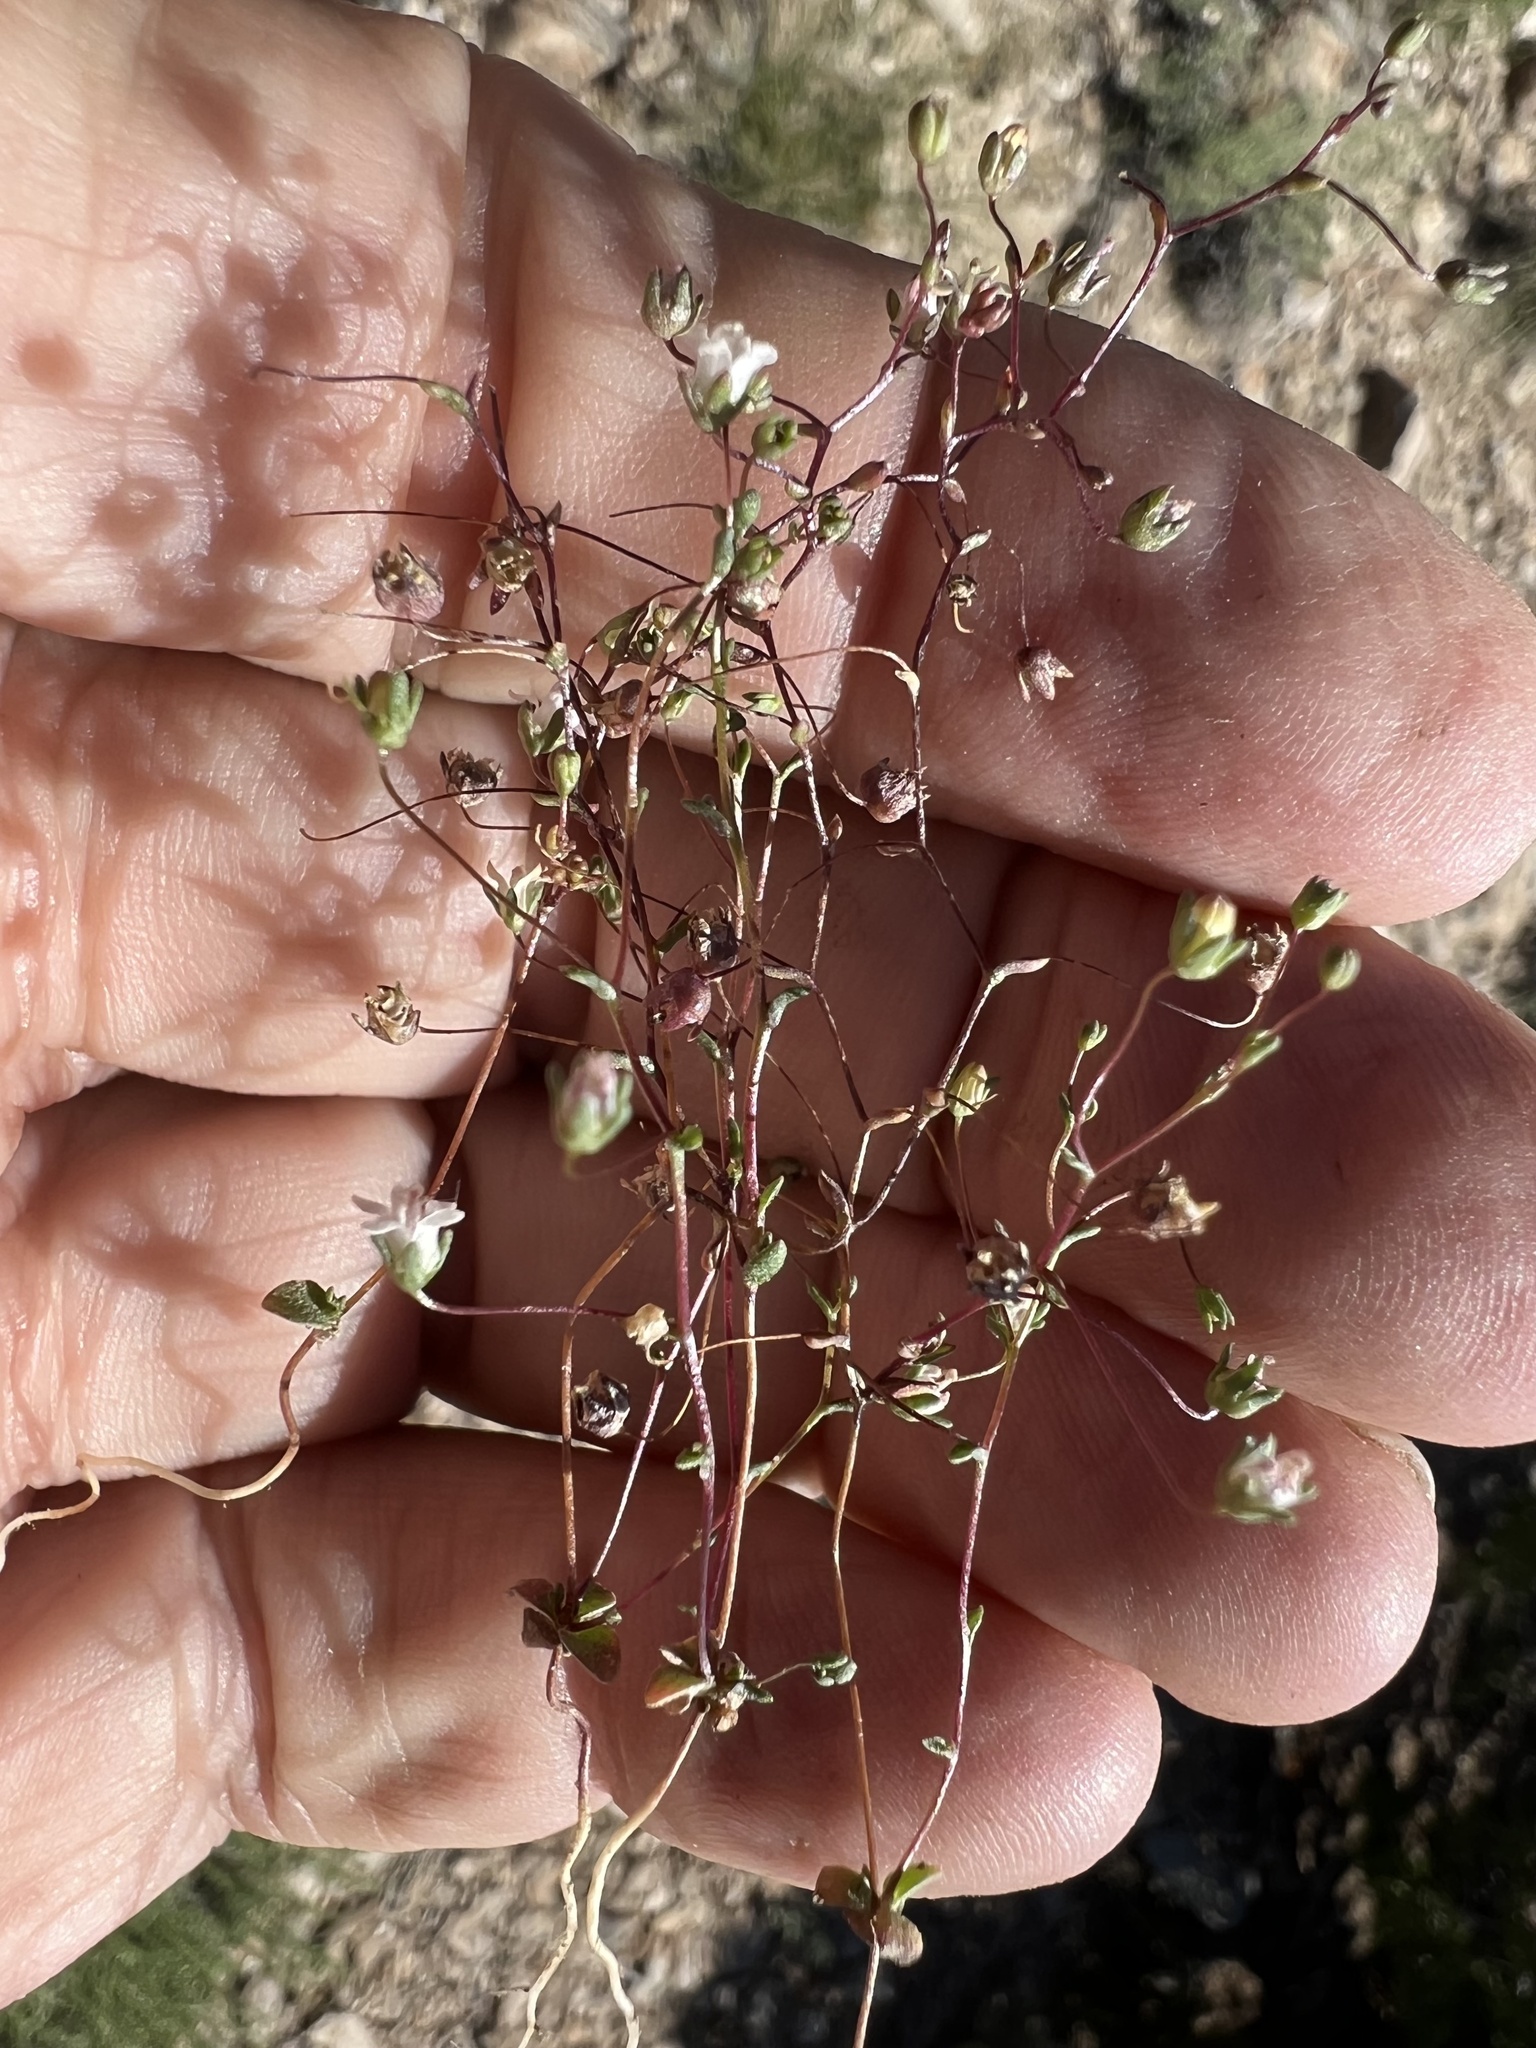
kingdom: Plantae
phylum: Tracheophyta
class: Magnoliopsida
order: Asterales
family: Campanulaceae
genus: Nemacladus
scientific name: Nemacladus inyoensis
